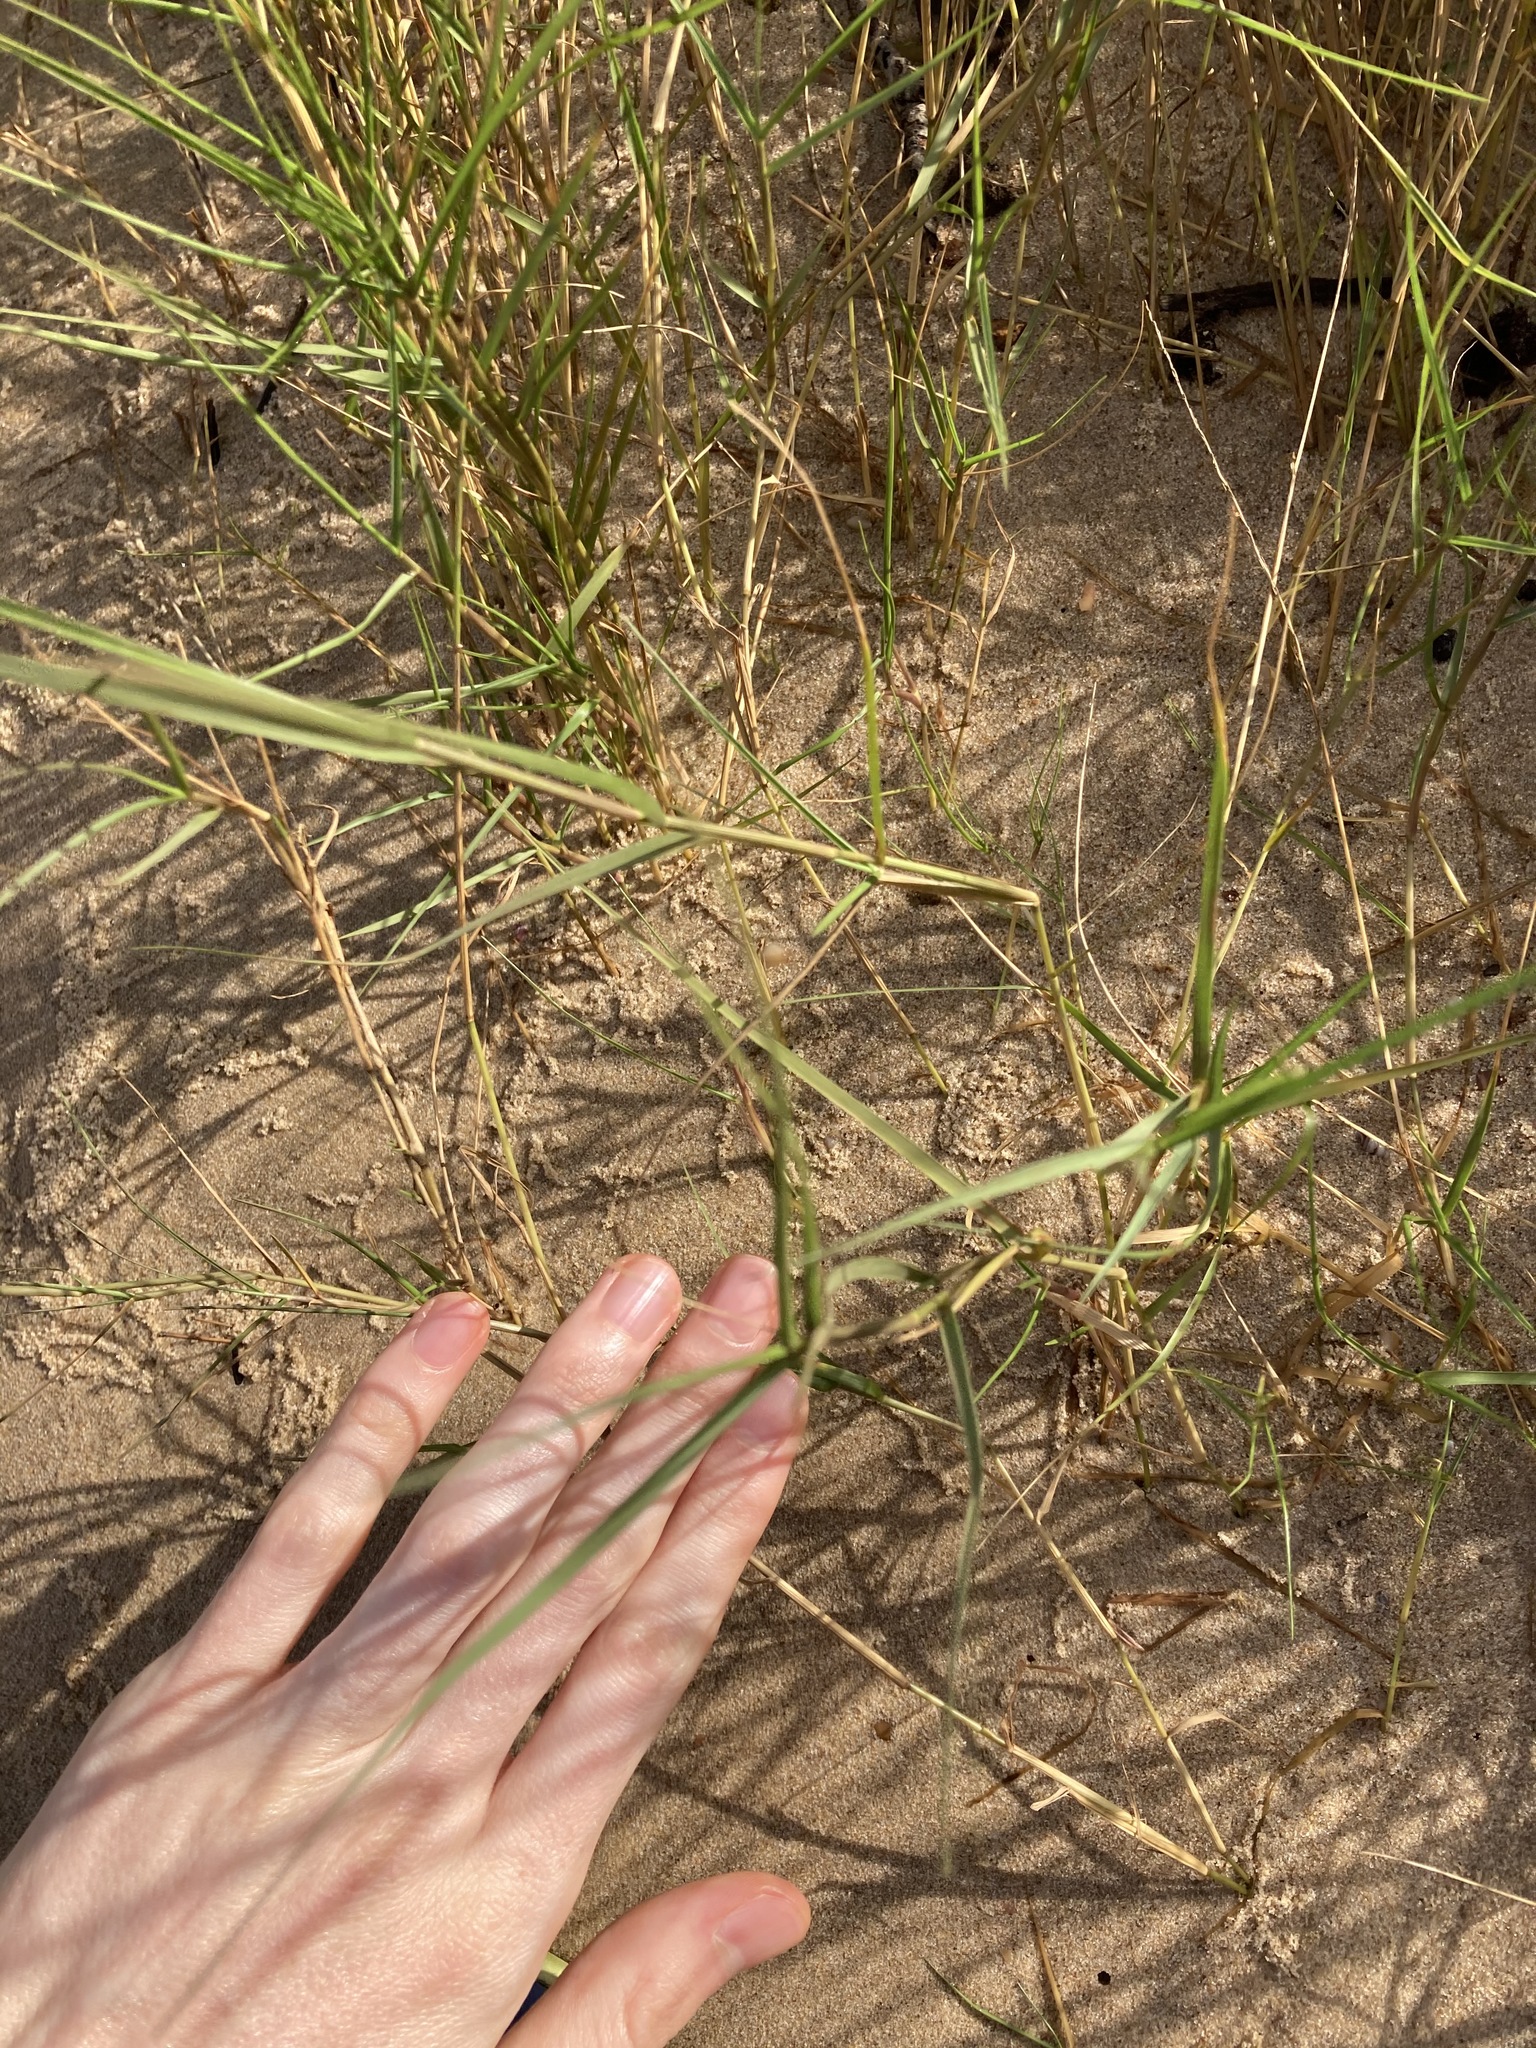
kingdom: Plantae
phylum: Tracheophyta
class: Liliopsida
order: Poales
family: Poaceae
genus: Sporobolus
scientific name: Sporobolus virginicus
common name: Beach dropseed
